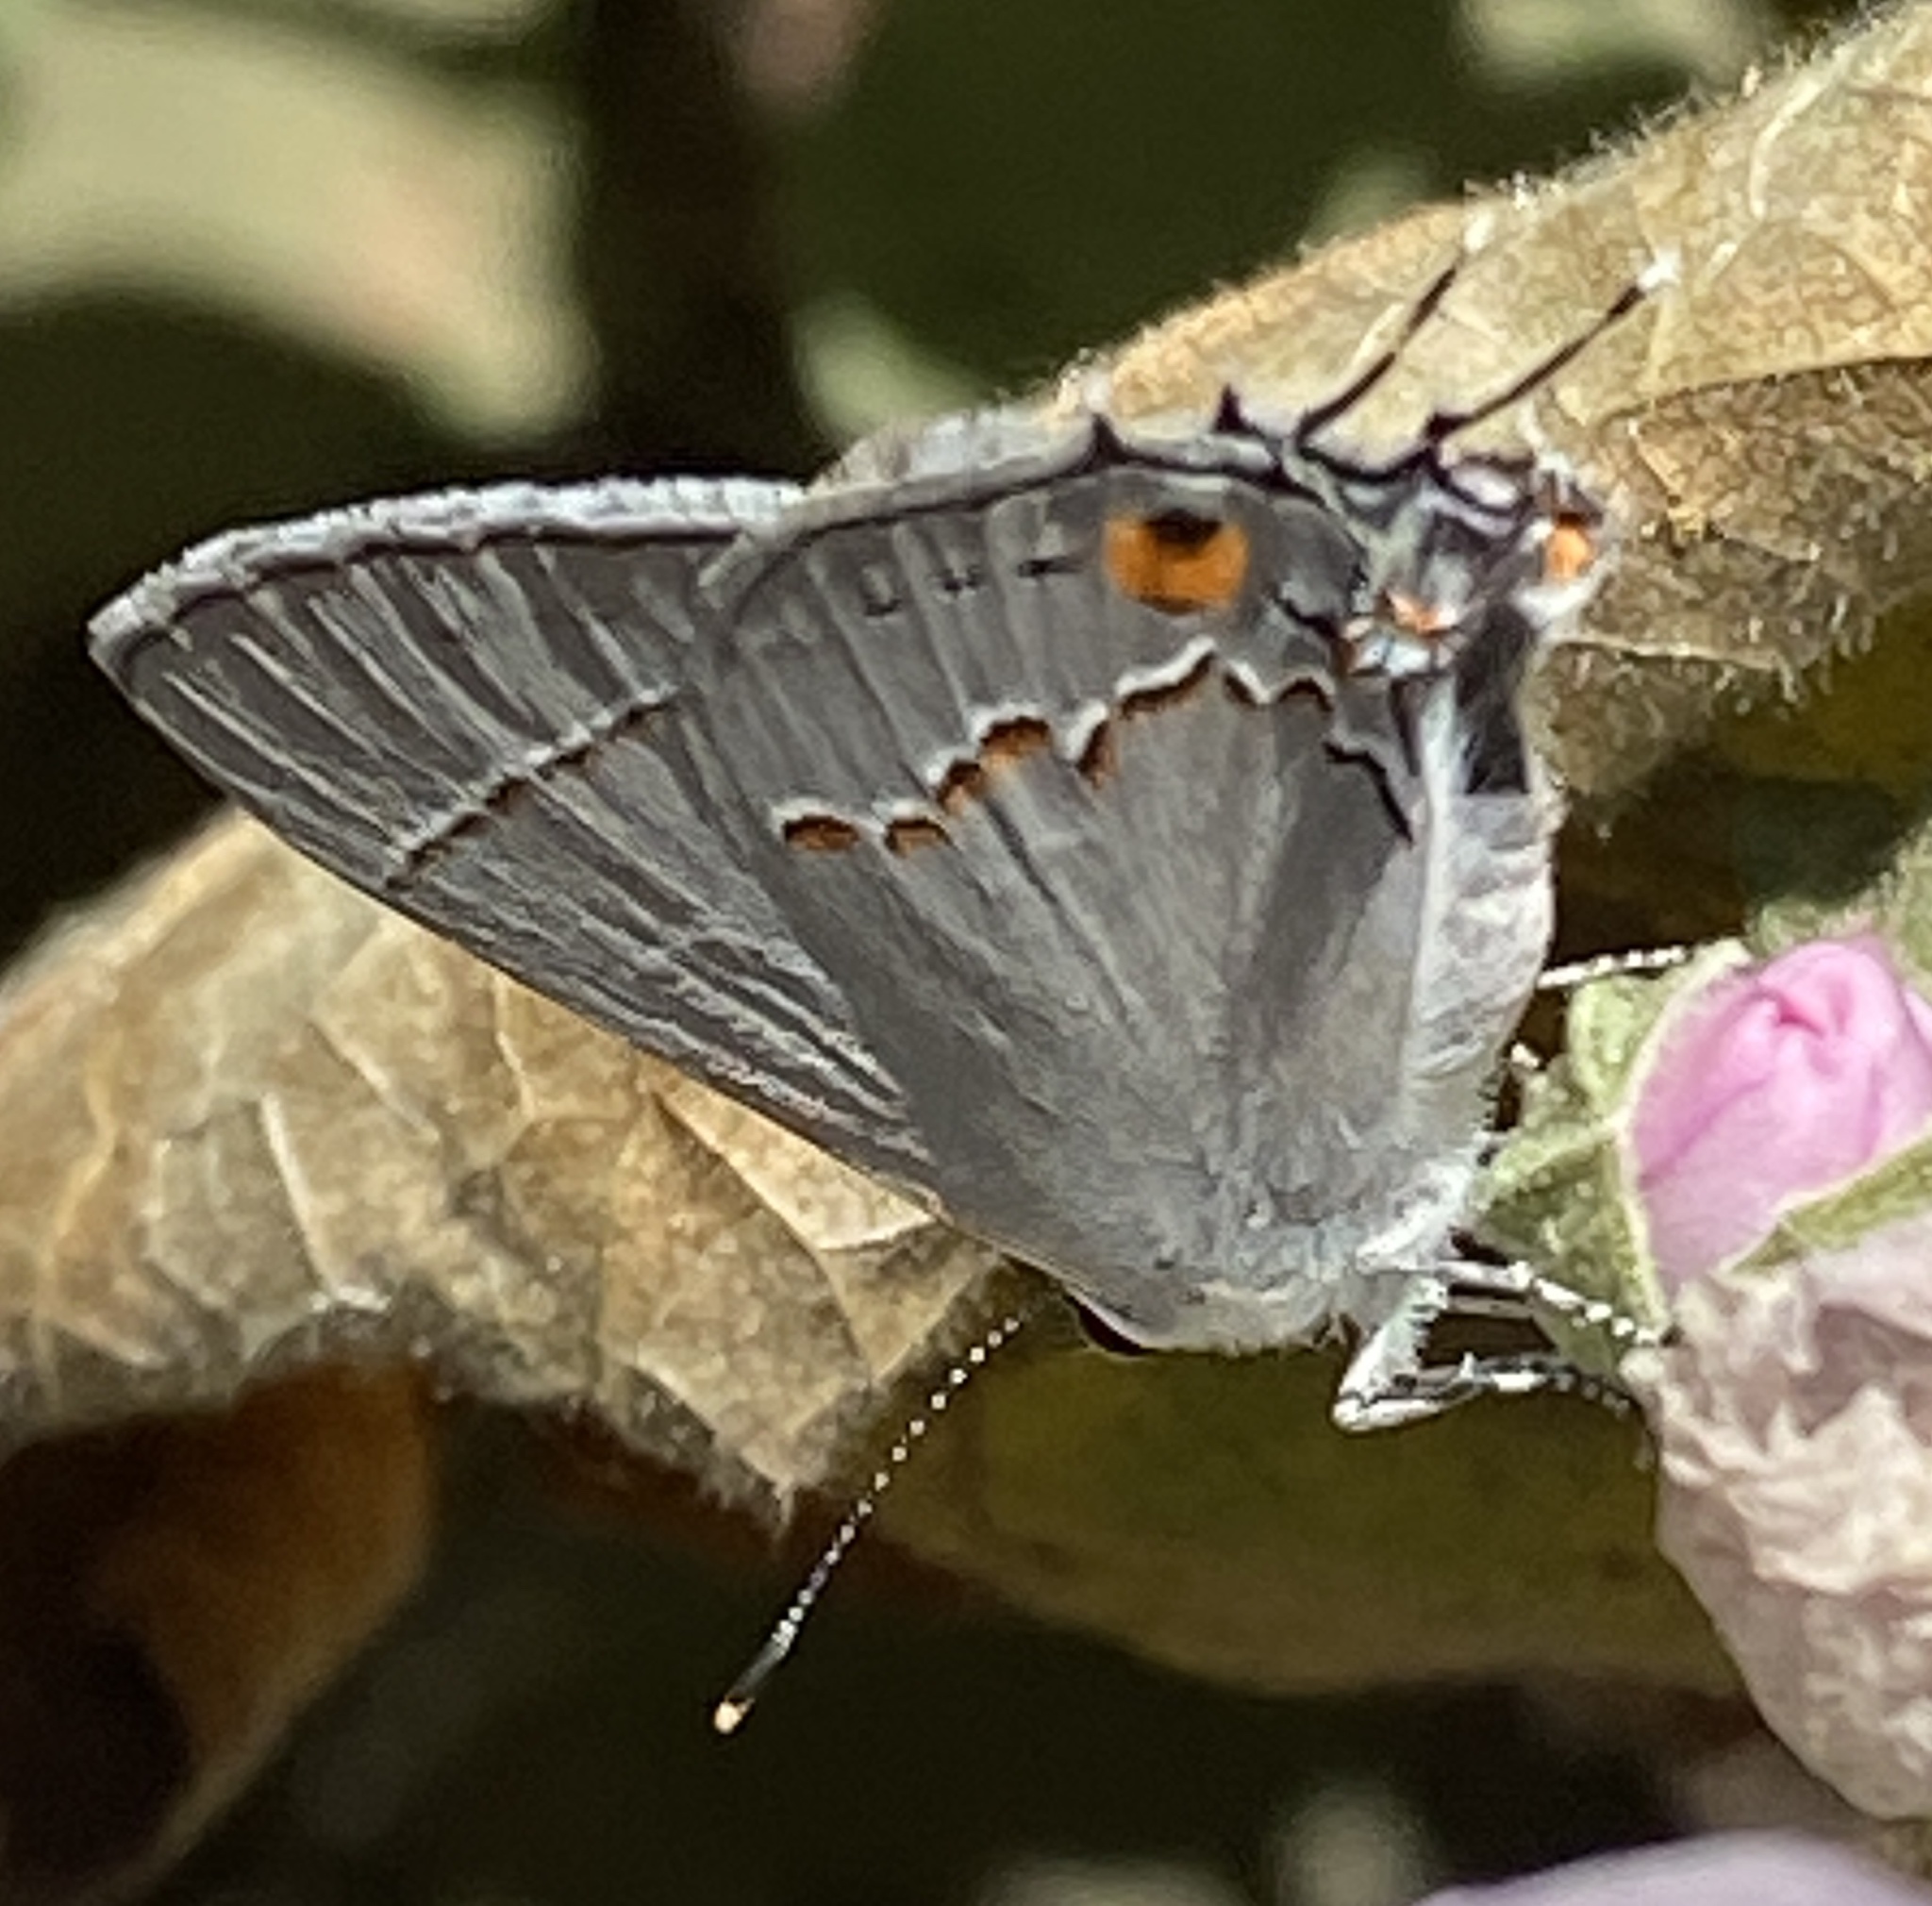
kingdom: Animalia
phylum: Arthropoda
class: Insecta
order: Lepidoptera
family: Lycaenidae
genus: Strymon
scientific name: Strymon melinus
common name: Gray hairstreak
